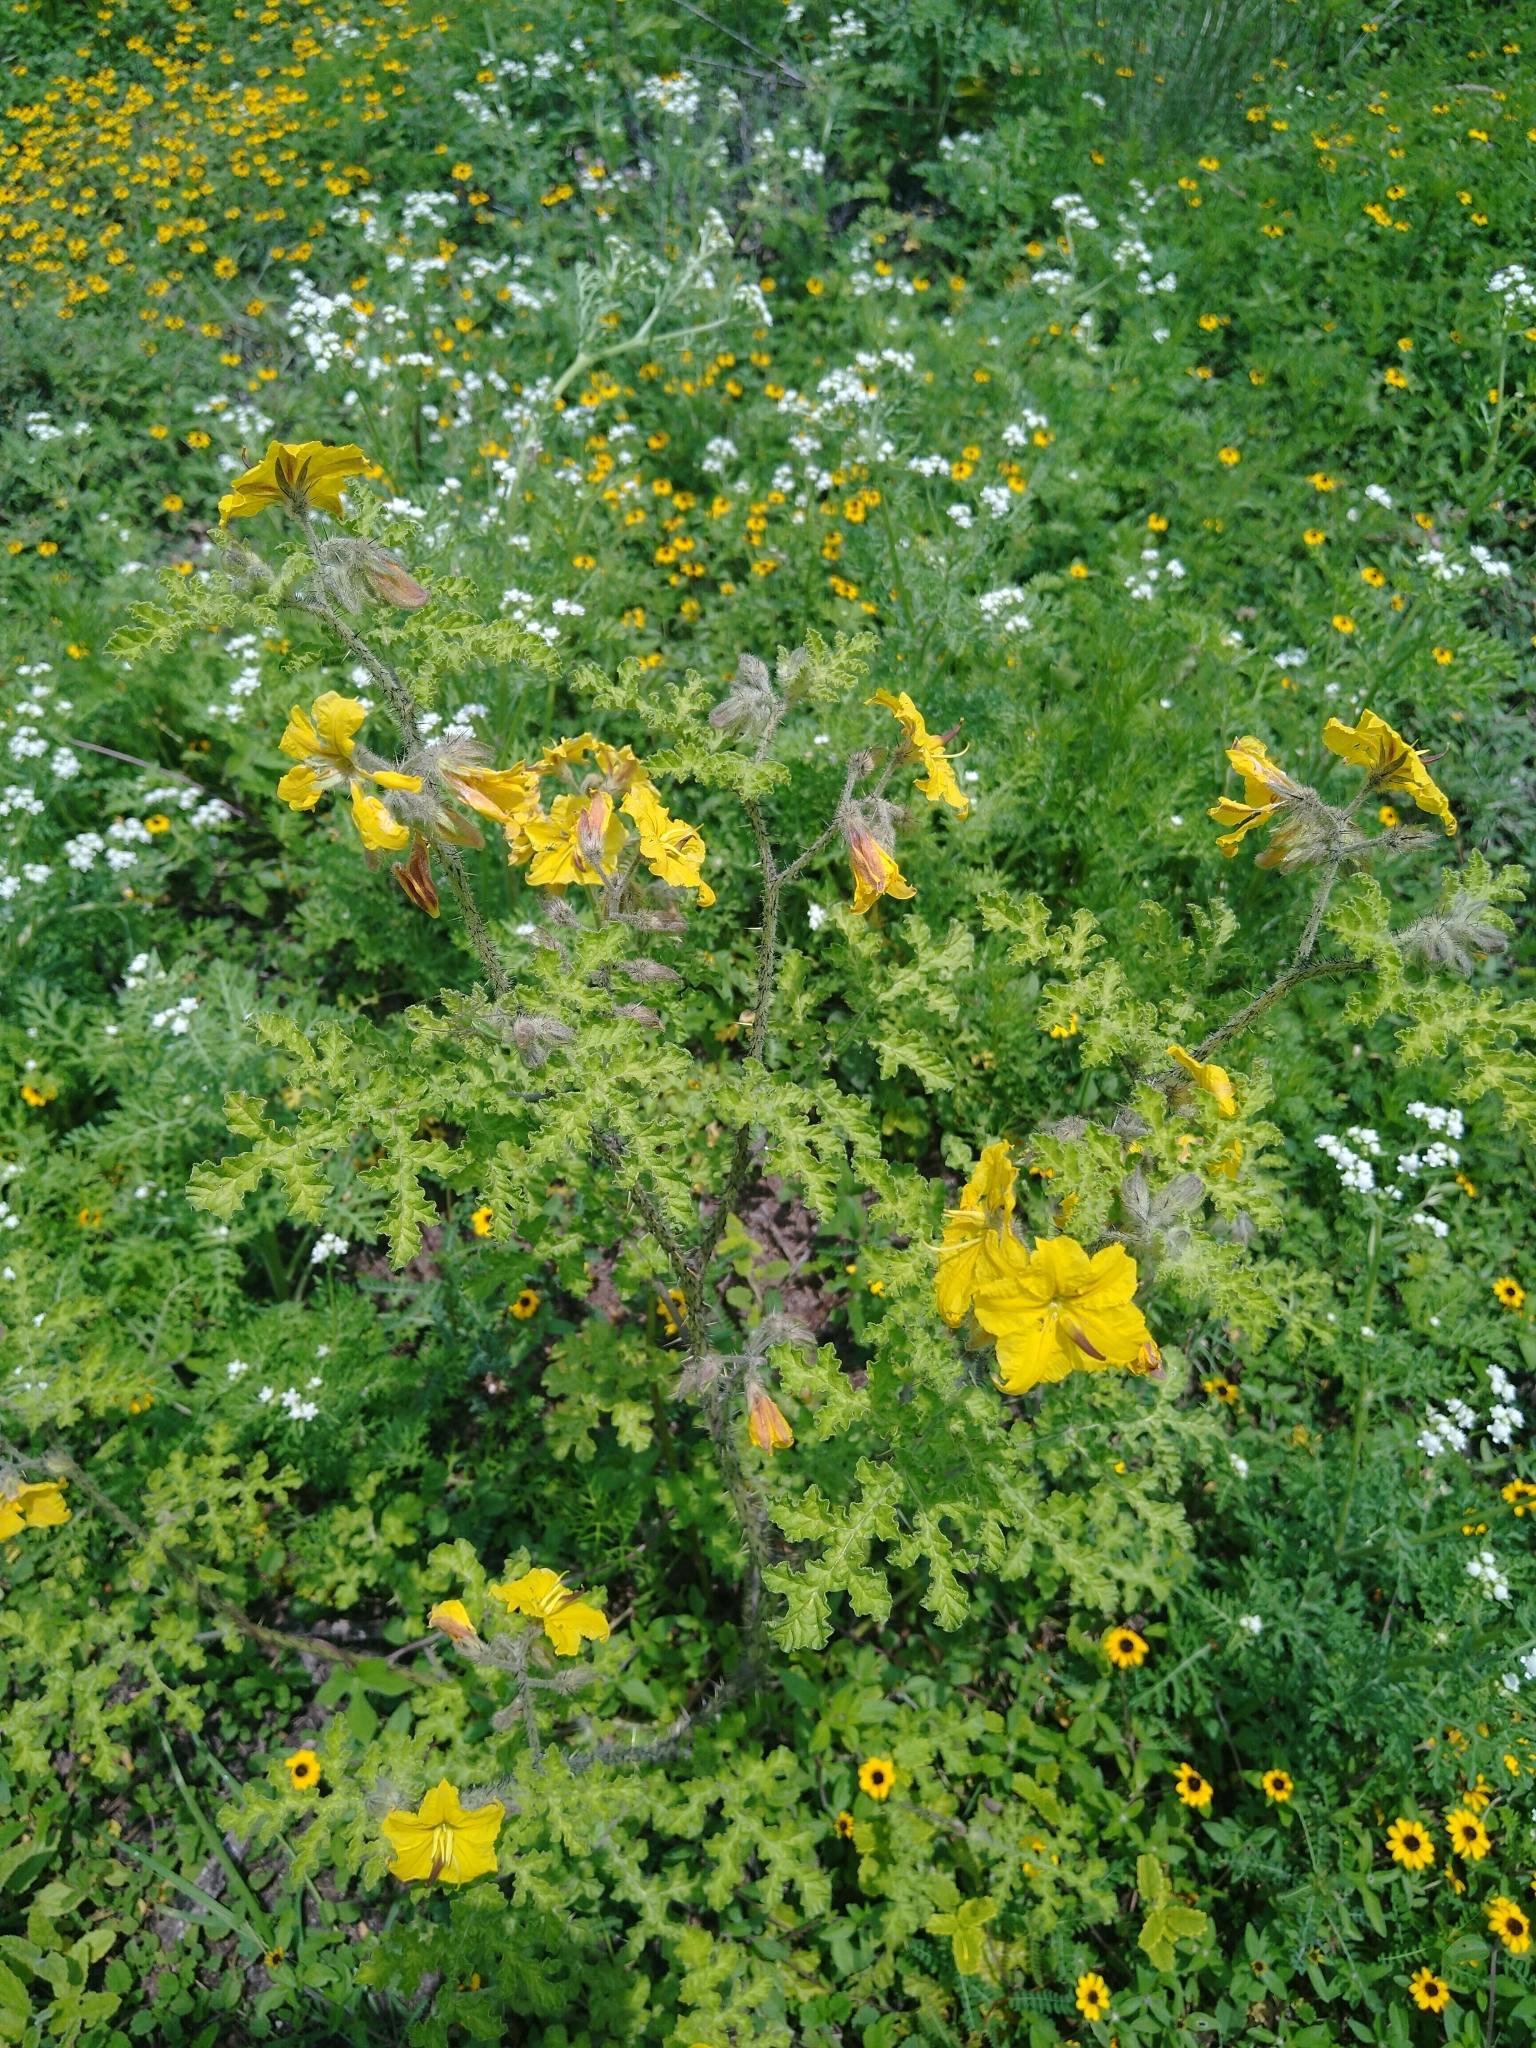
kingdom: Plantae
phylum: Tracheophyta
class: Magnoliopsida
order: Solanales
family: Solanaceae
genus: Solanum
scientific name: Solanum angustifolium
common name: Buffalobur nightshade
